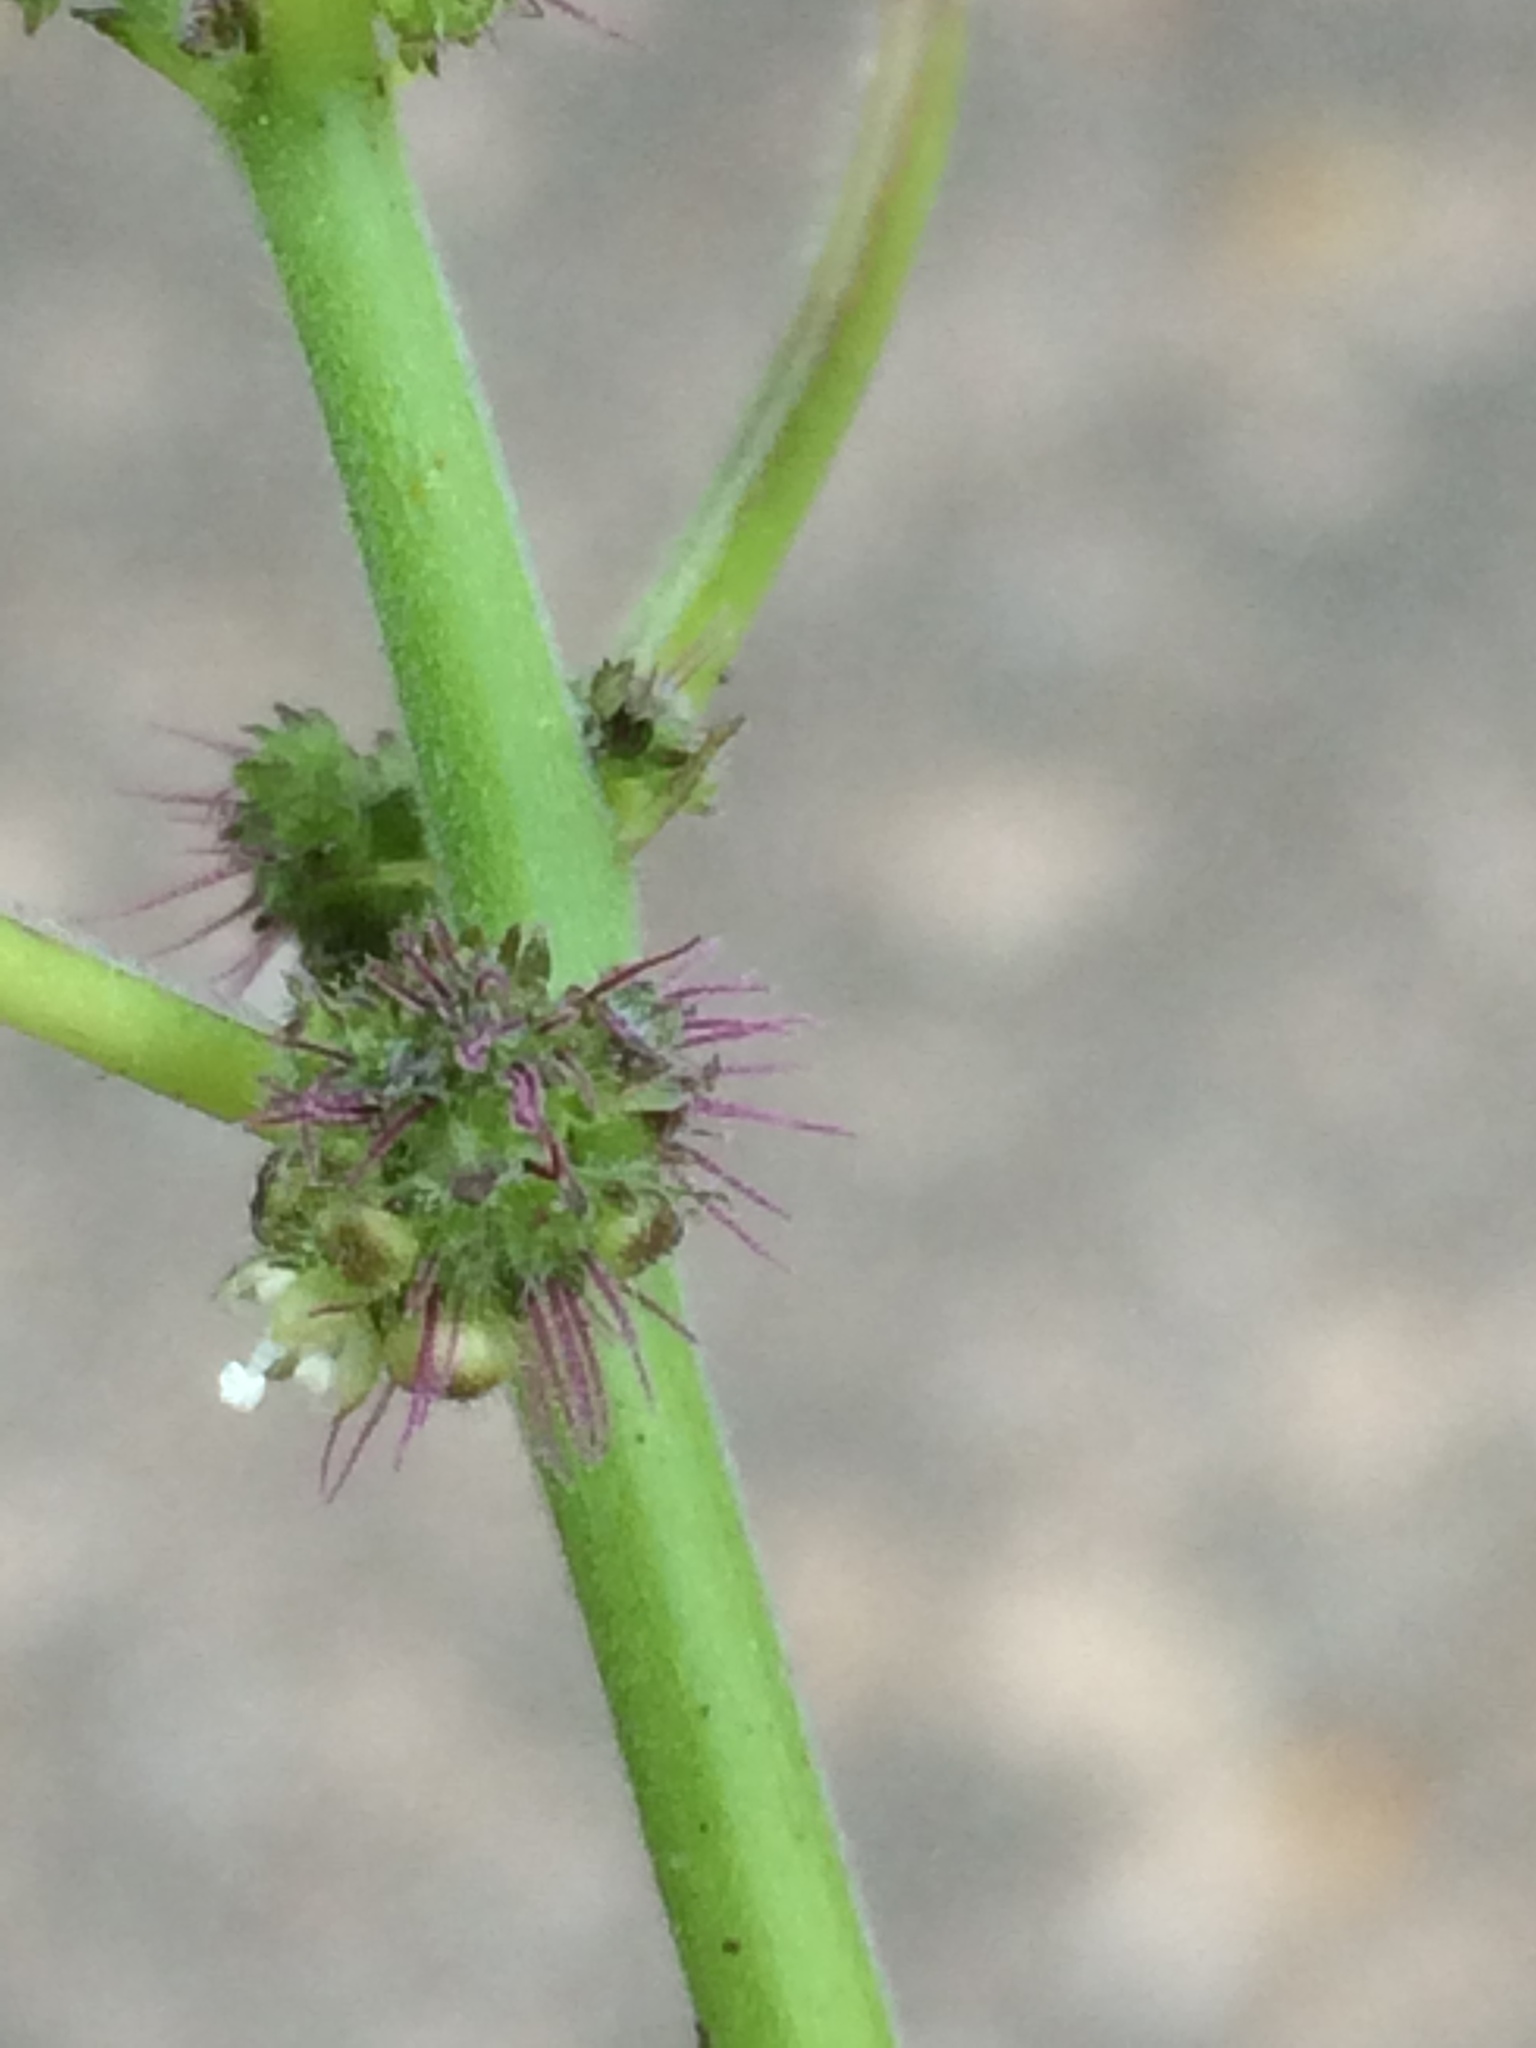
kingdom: Plantae
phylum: Tracheophyta
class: Magnoliopsida
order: Rosales
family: Moraceae
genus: Fatoua
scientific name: Fatoua villosa
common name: Hairy crabweed
